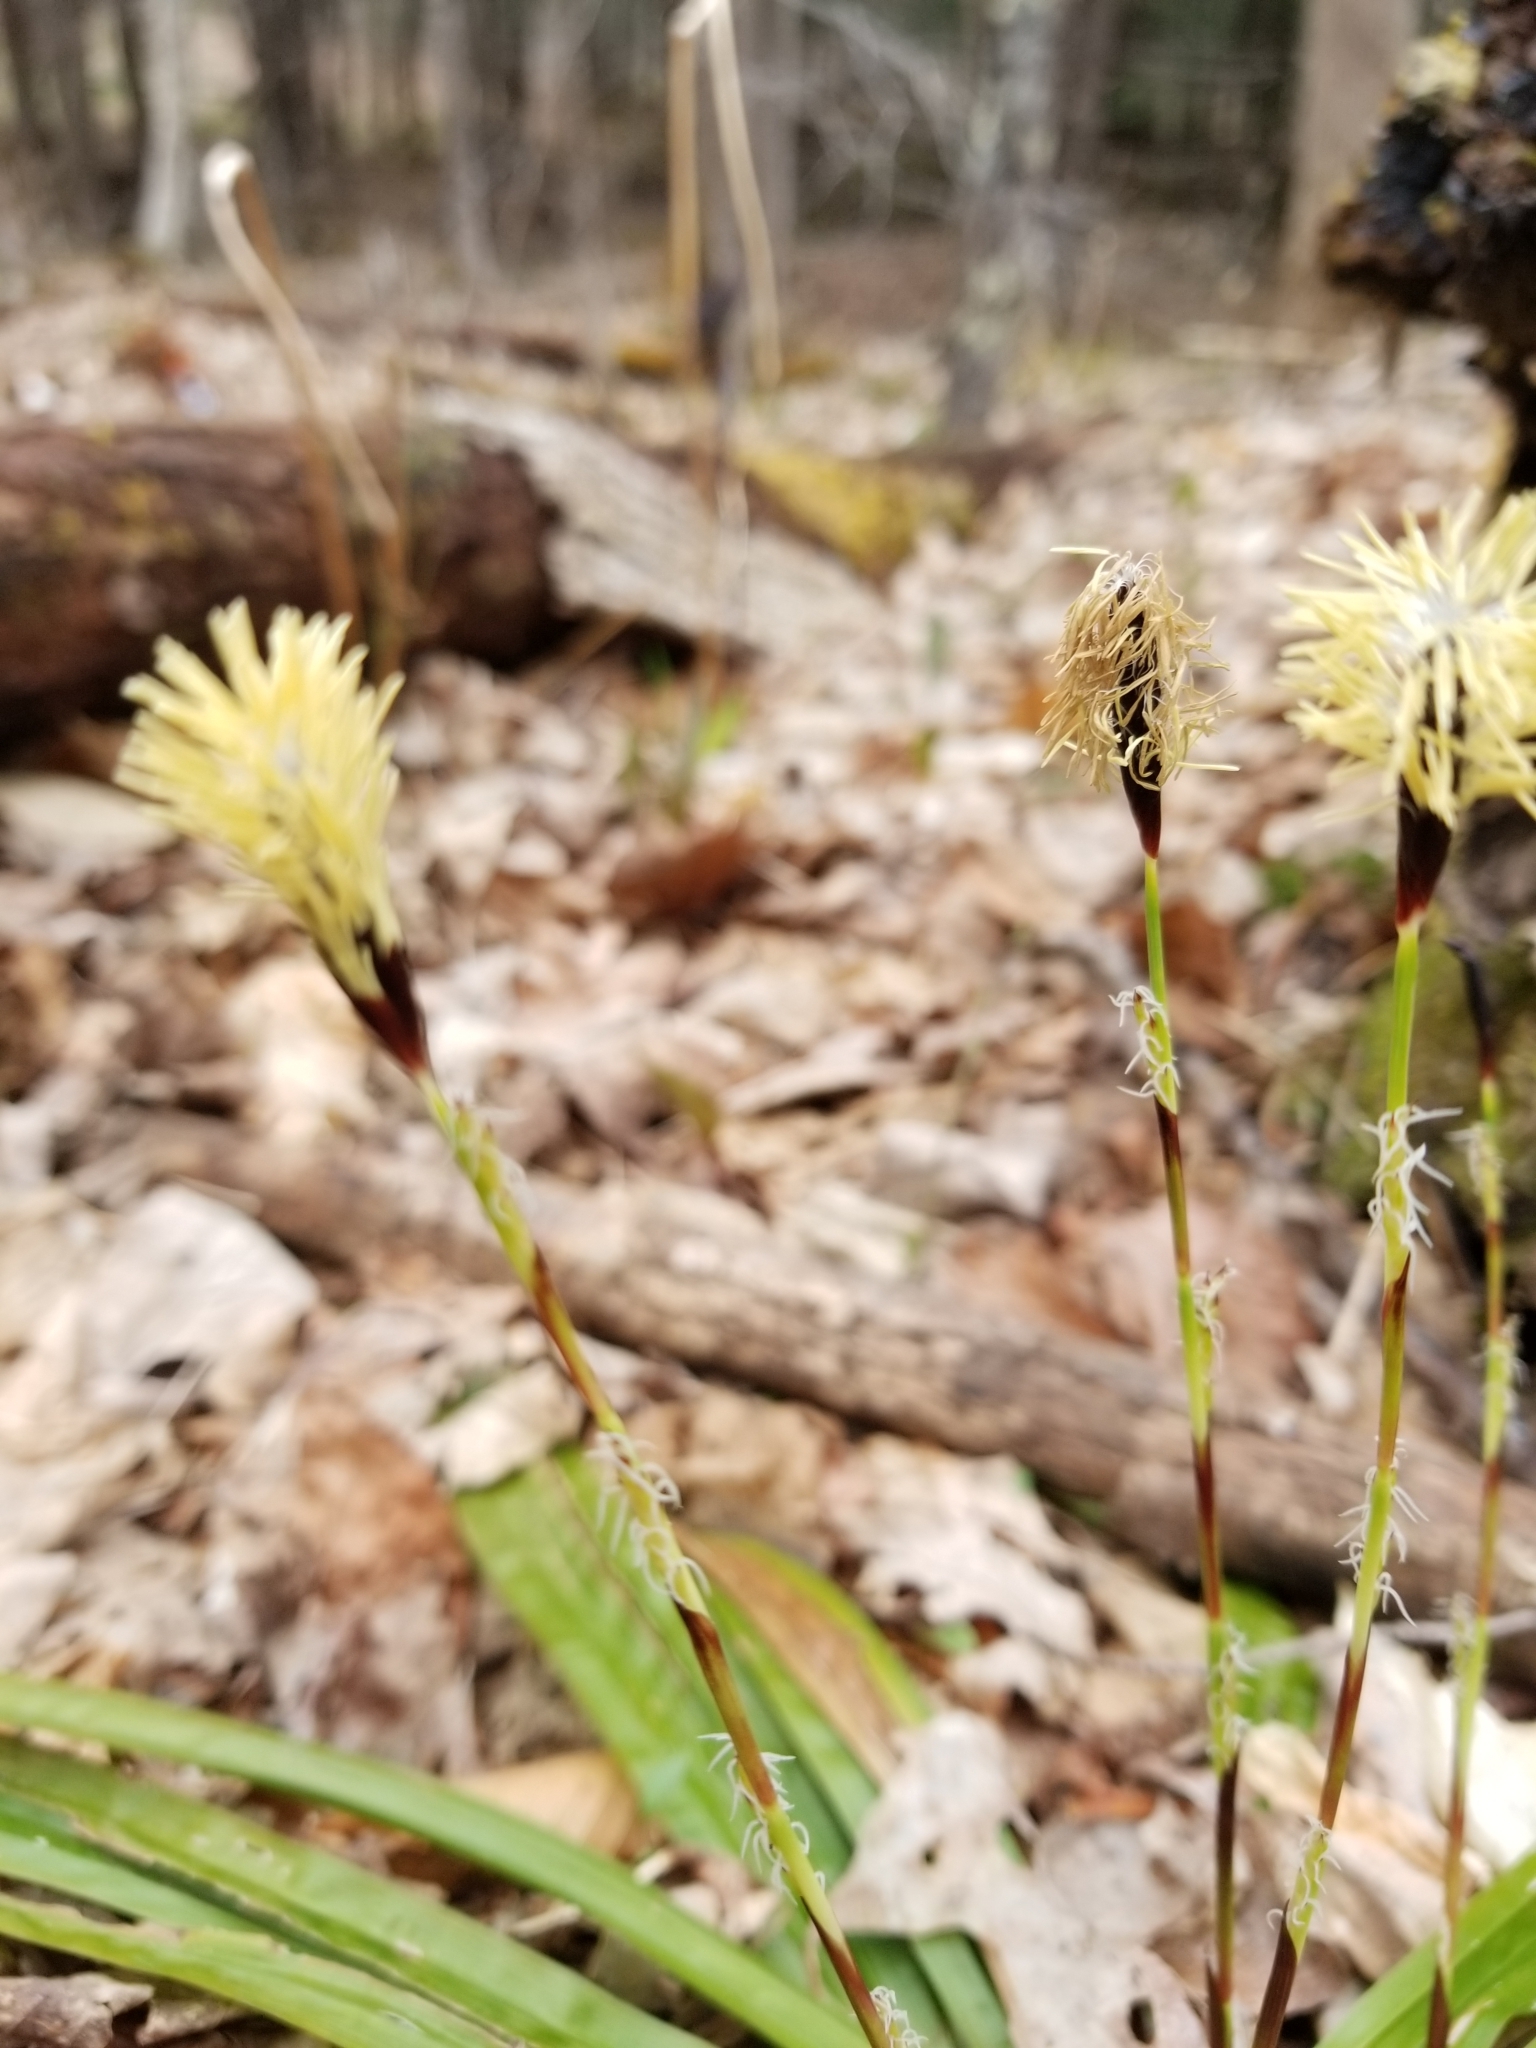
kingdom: Plantae
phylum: Tracheophyta
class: Liliopsida
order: Poales
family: Cyperaceae
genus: Carex
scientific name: Carex plantaginea
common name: Plantain-leaved sedge
